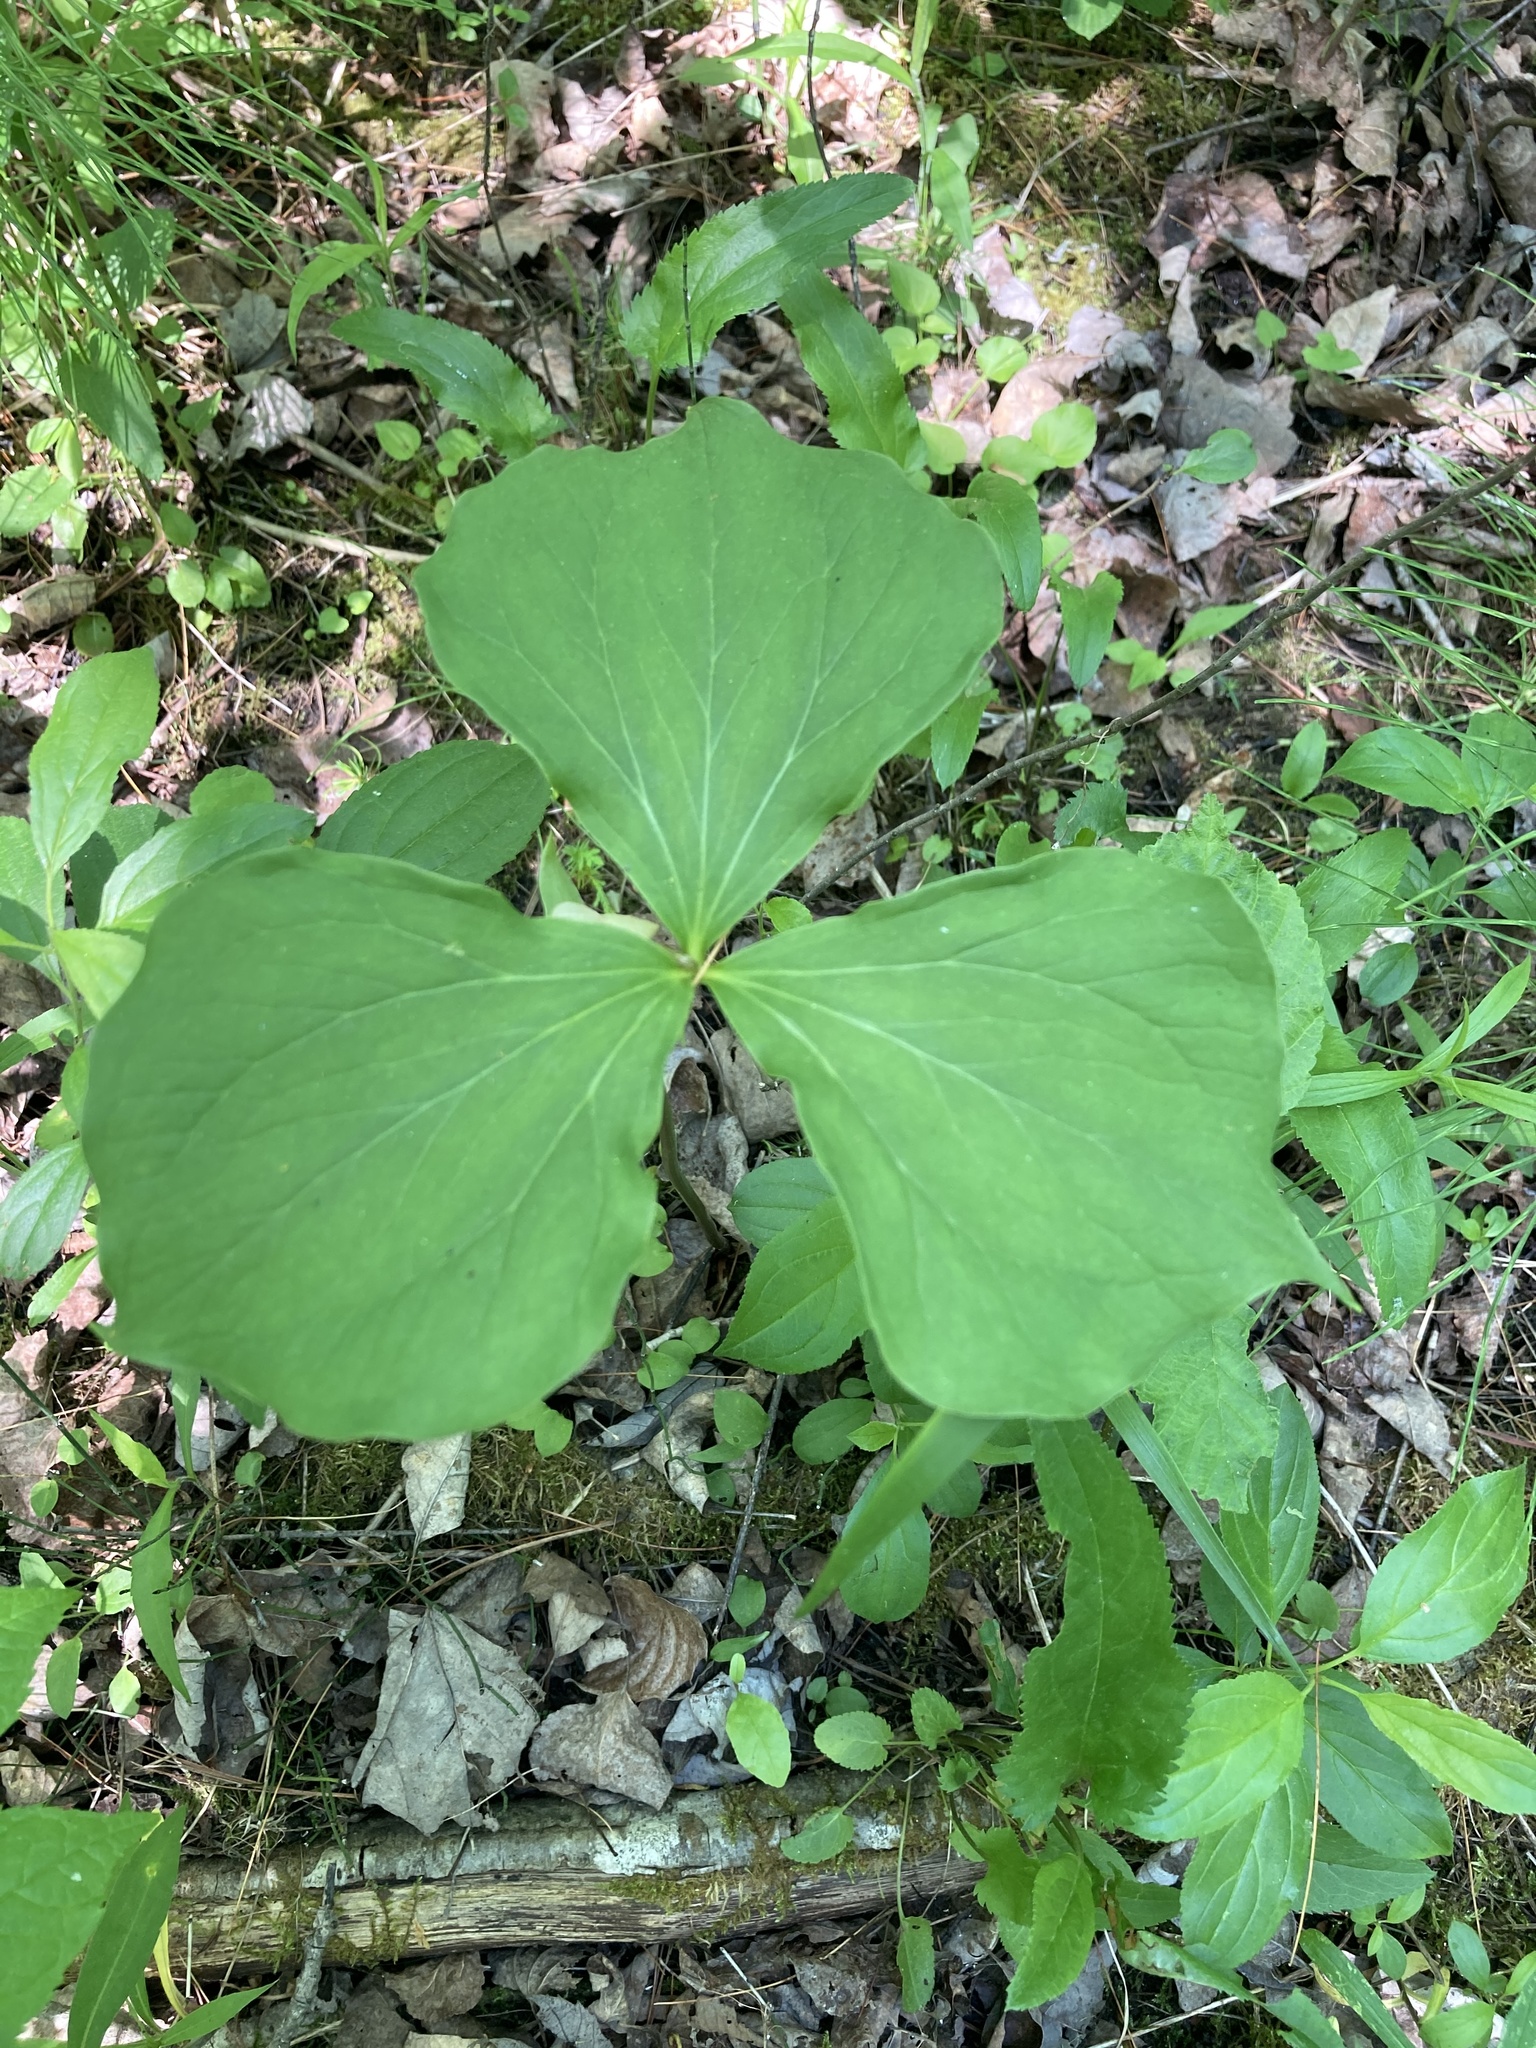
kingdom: Plantae
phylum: Tracheophyta
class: Liliopsida
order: Liliales
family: Melanthiaceae
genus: Trillium
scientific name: Trillium cernuum
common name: Nodding trillium
